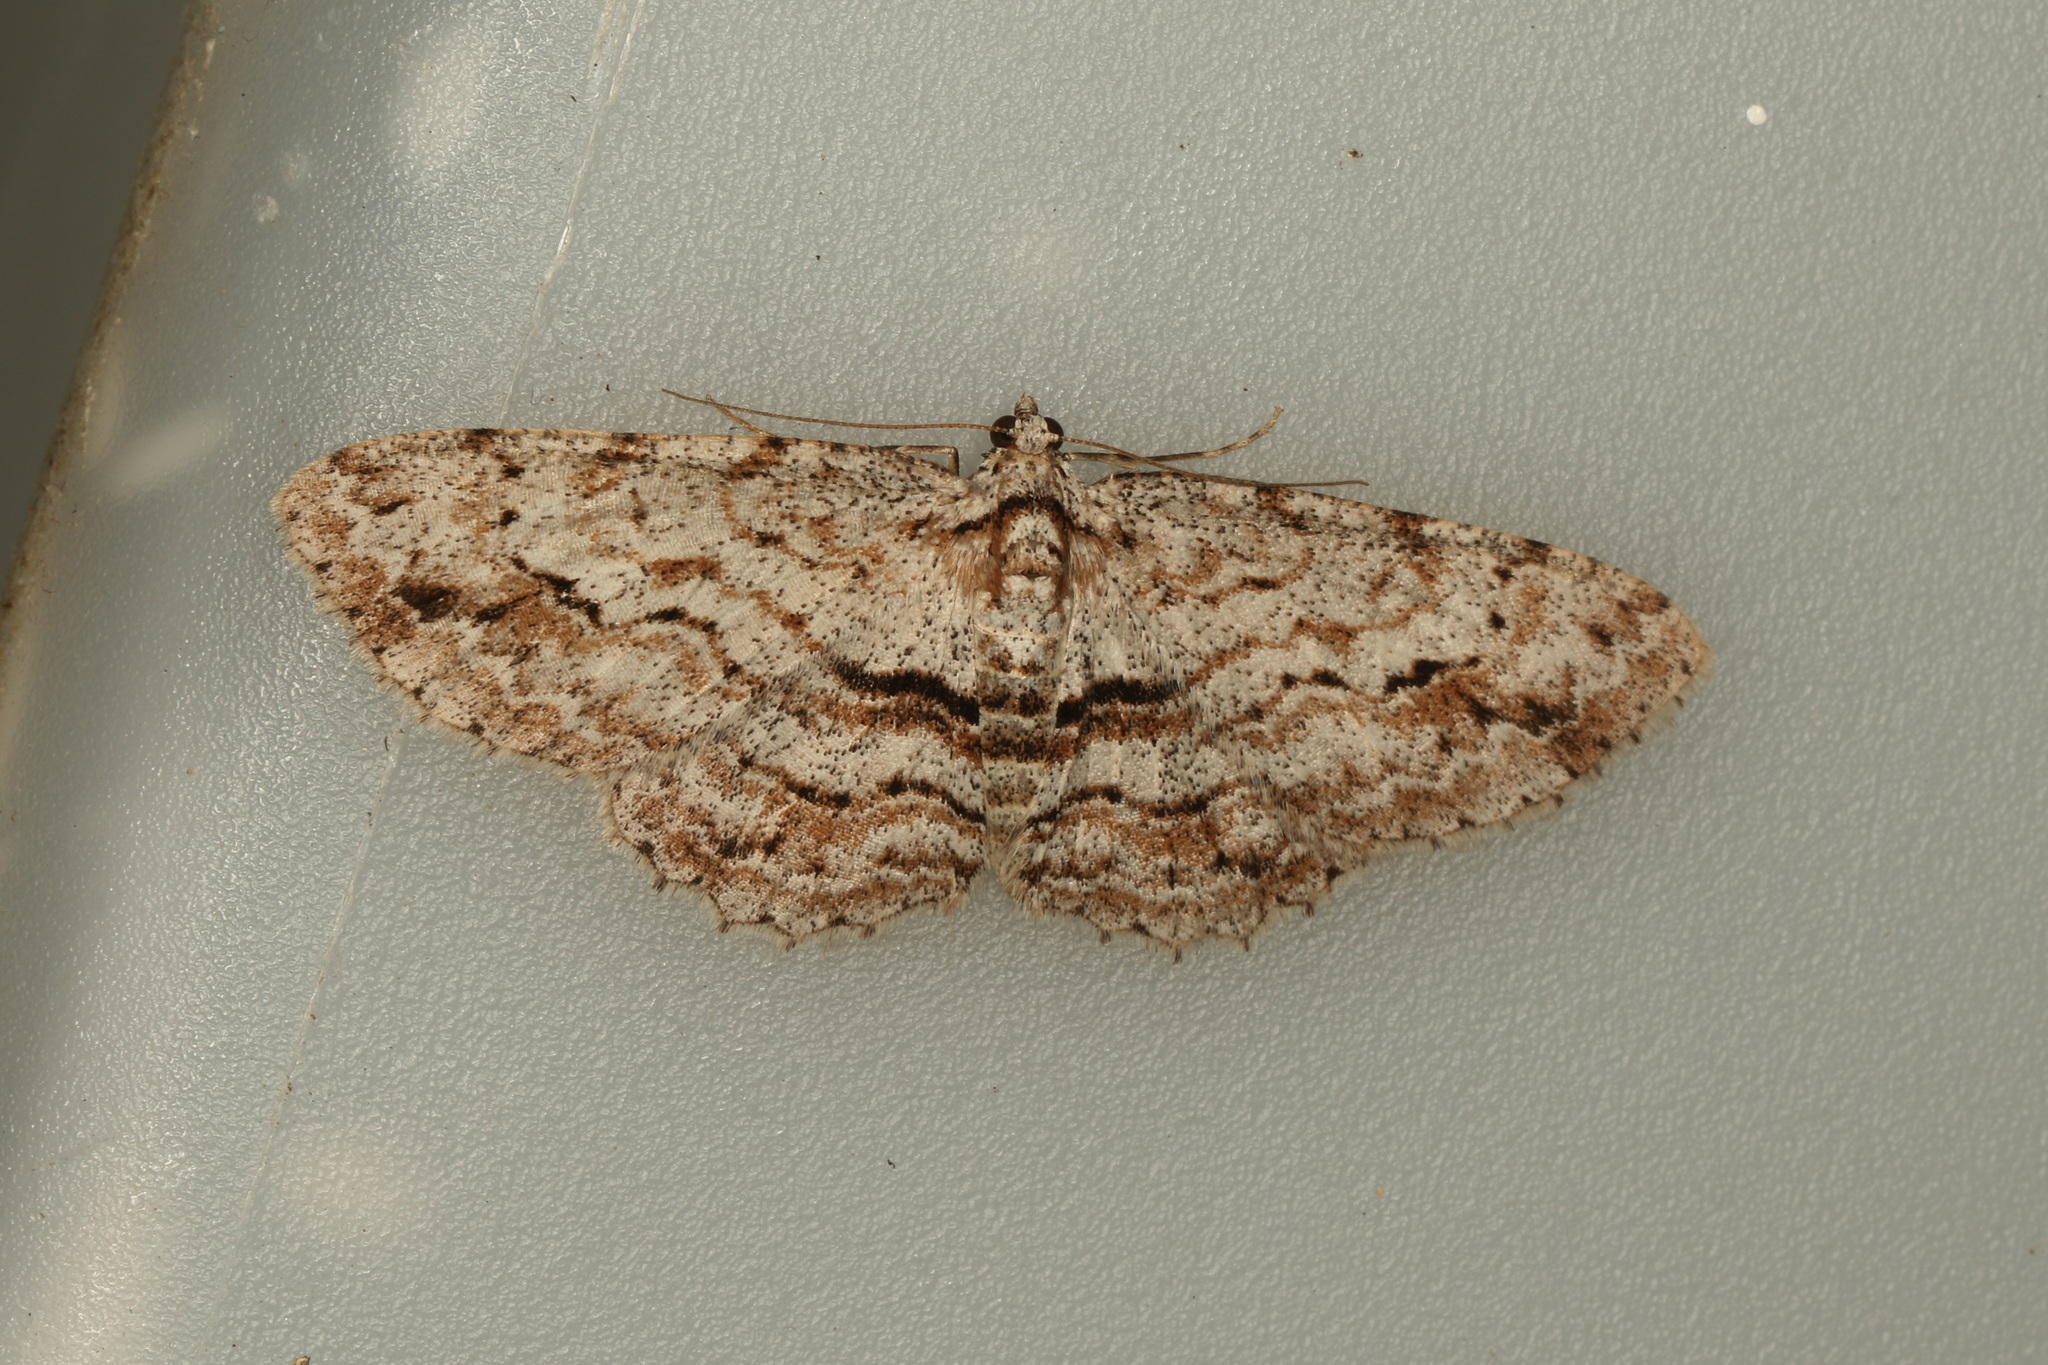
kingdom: Animalia
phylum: Arthropoda
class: Insecta
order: Lepidoptera
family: Geometridae
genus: Didymoctenia
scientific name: Didymoctenia exsuperata
